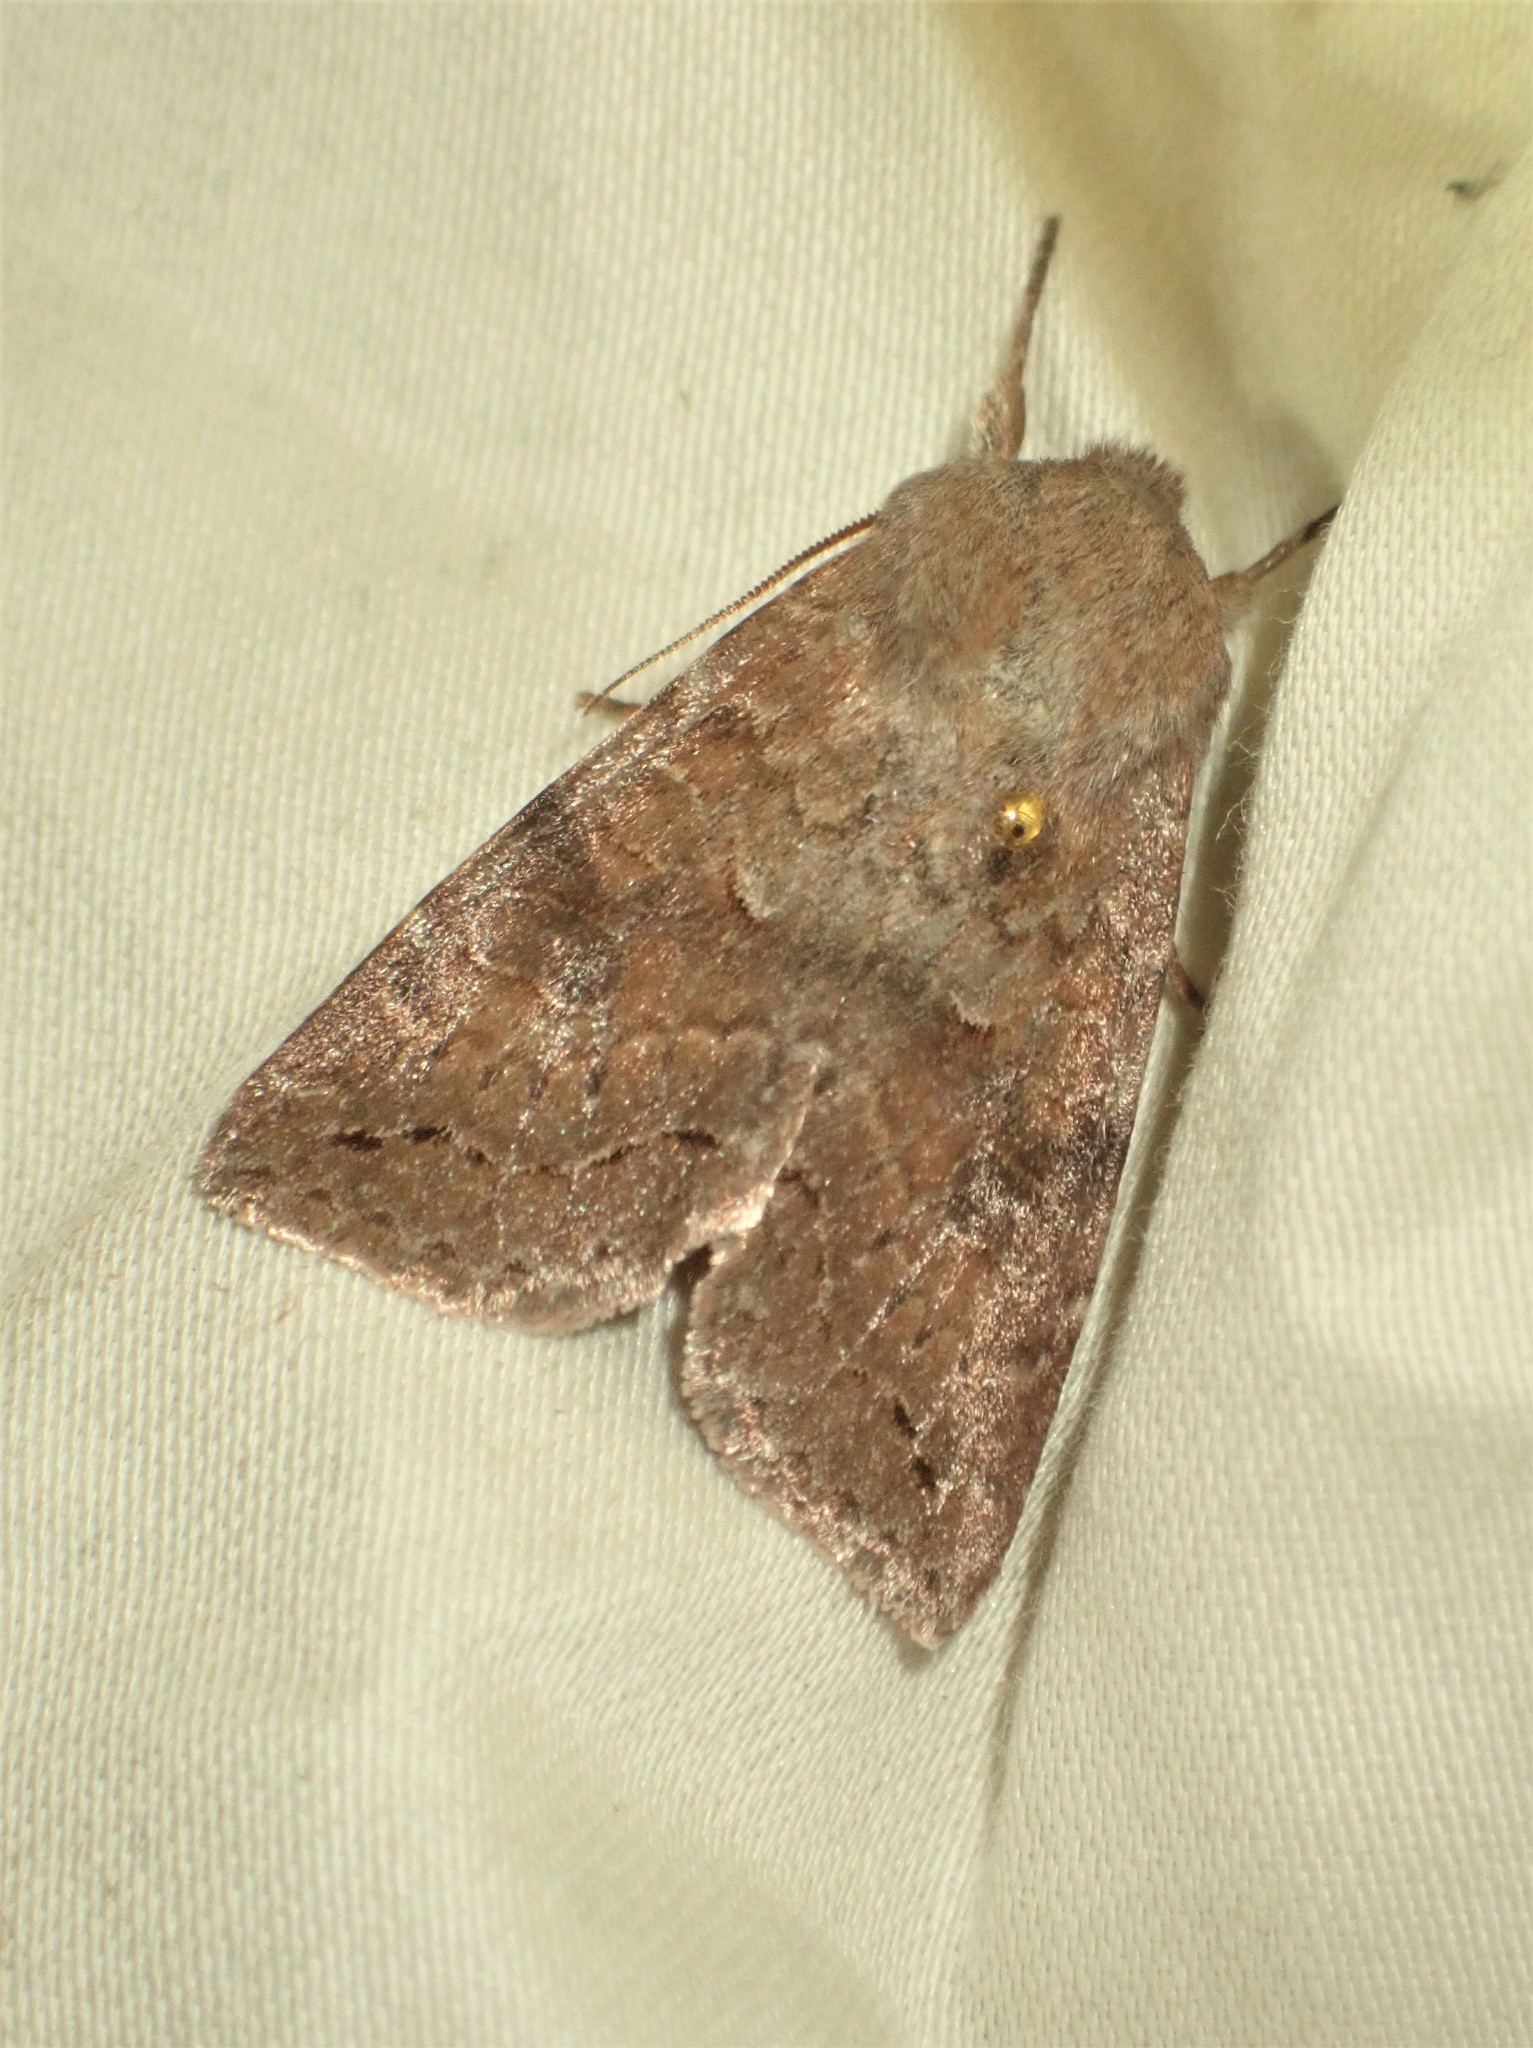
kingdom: Animalia
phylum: Arthropoda
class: Insecta
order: Lepidoptera
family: Noctuidae
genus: Orthosia
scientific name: Orthosia revicta
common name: Rusty whitesided caterpillar
